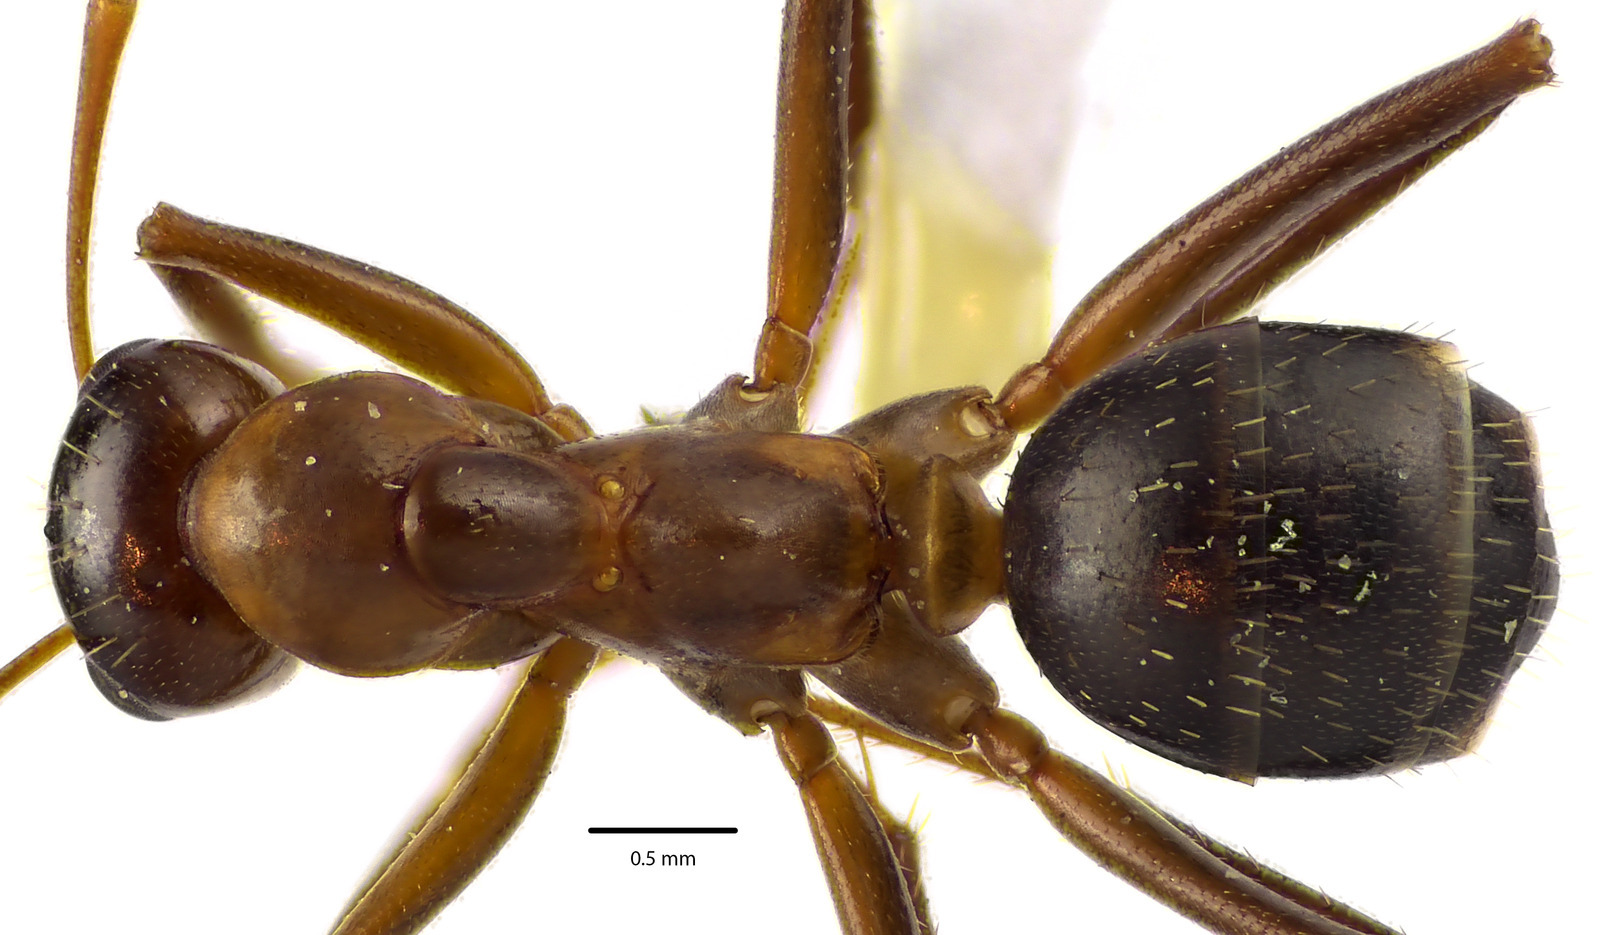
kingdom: Animalia
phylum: Arthropoda
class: Insecta
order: Hymenoptera
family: Formicidae
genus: Formica
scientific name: Formica pallidefulva
